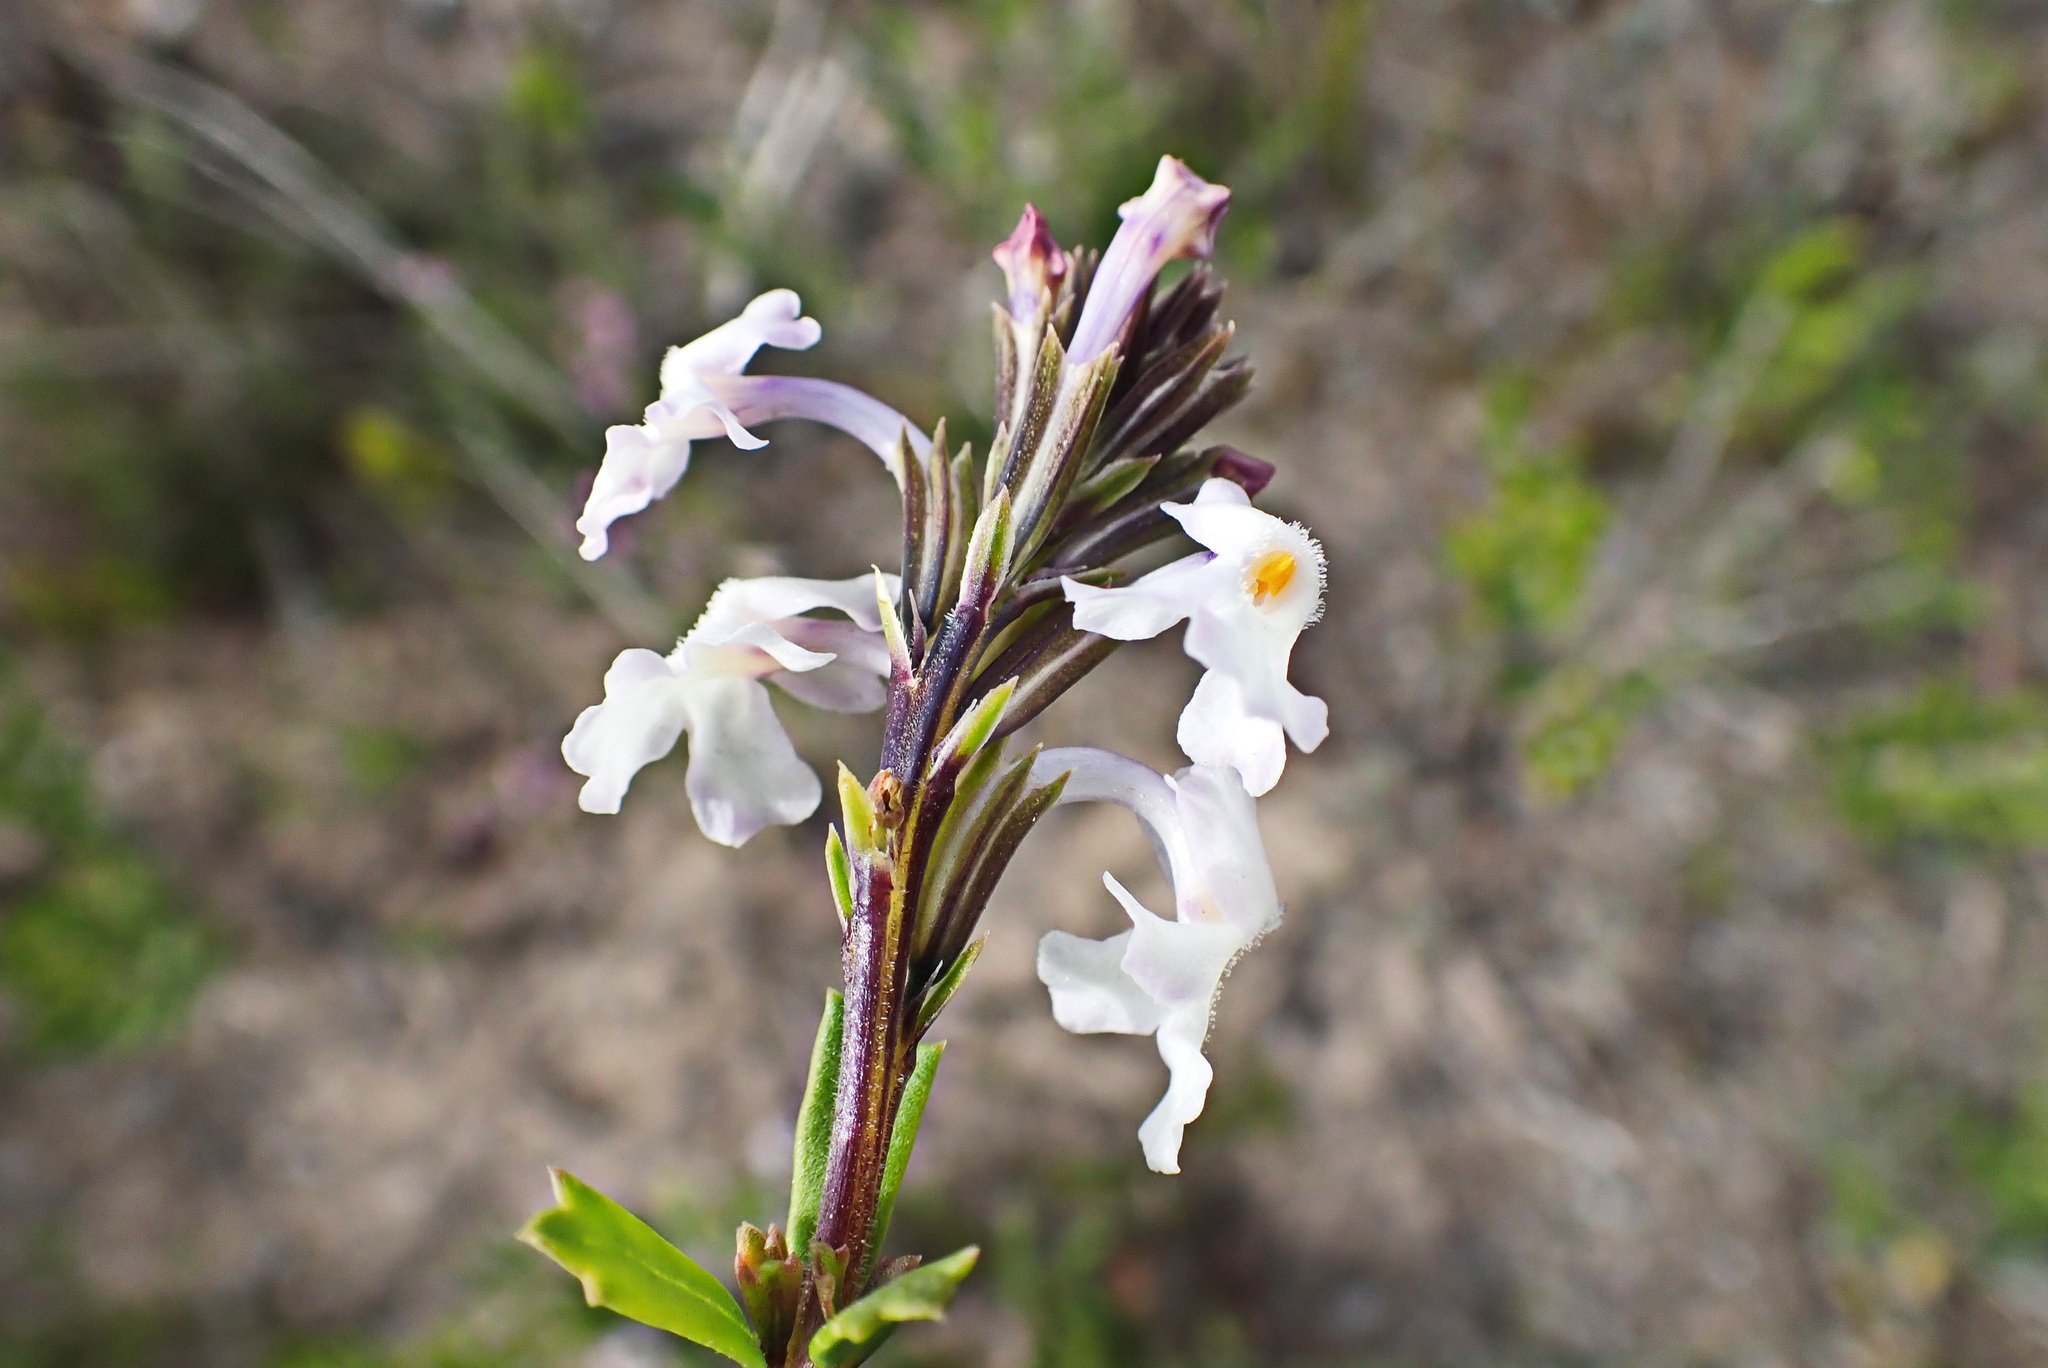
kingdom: Plantae
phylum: Tracheophyta
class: Magnoliopsida
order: Lamiales
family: Verbenaceae
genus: Chascanum
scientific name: Chascanum cernuum
